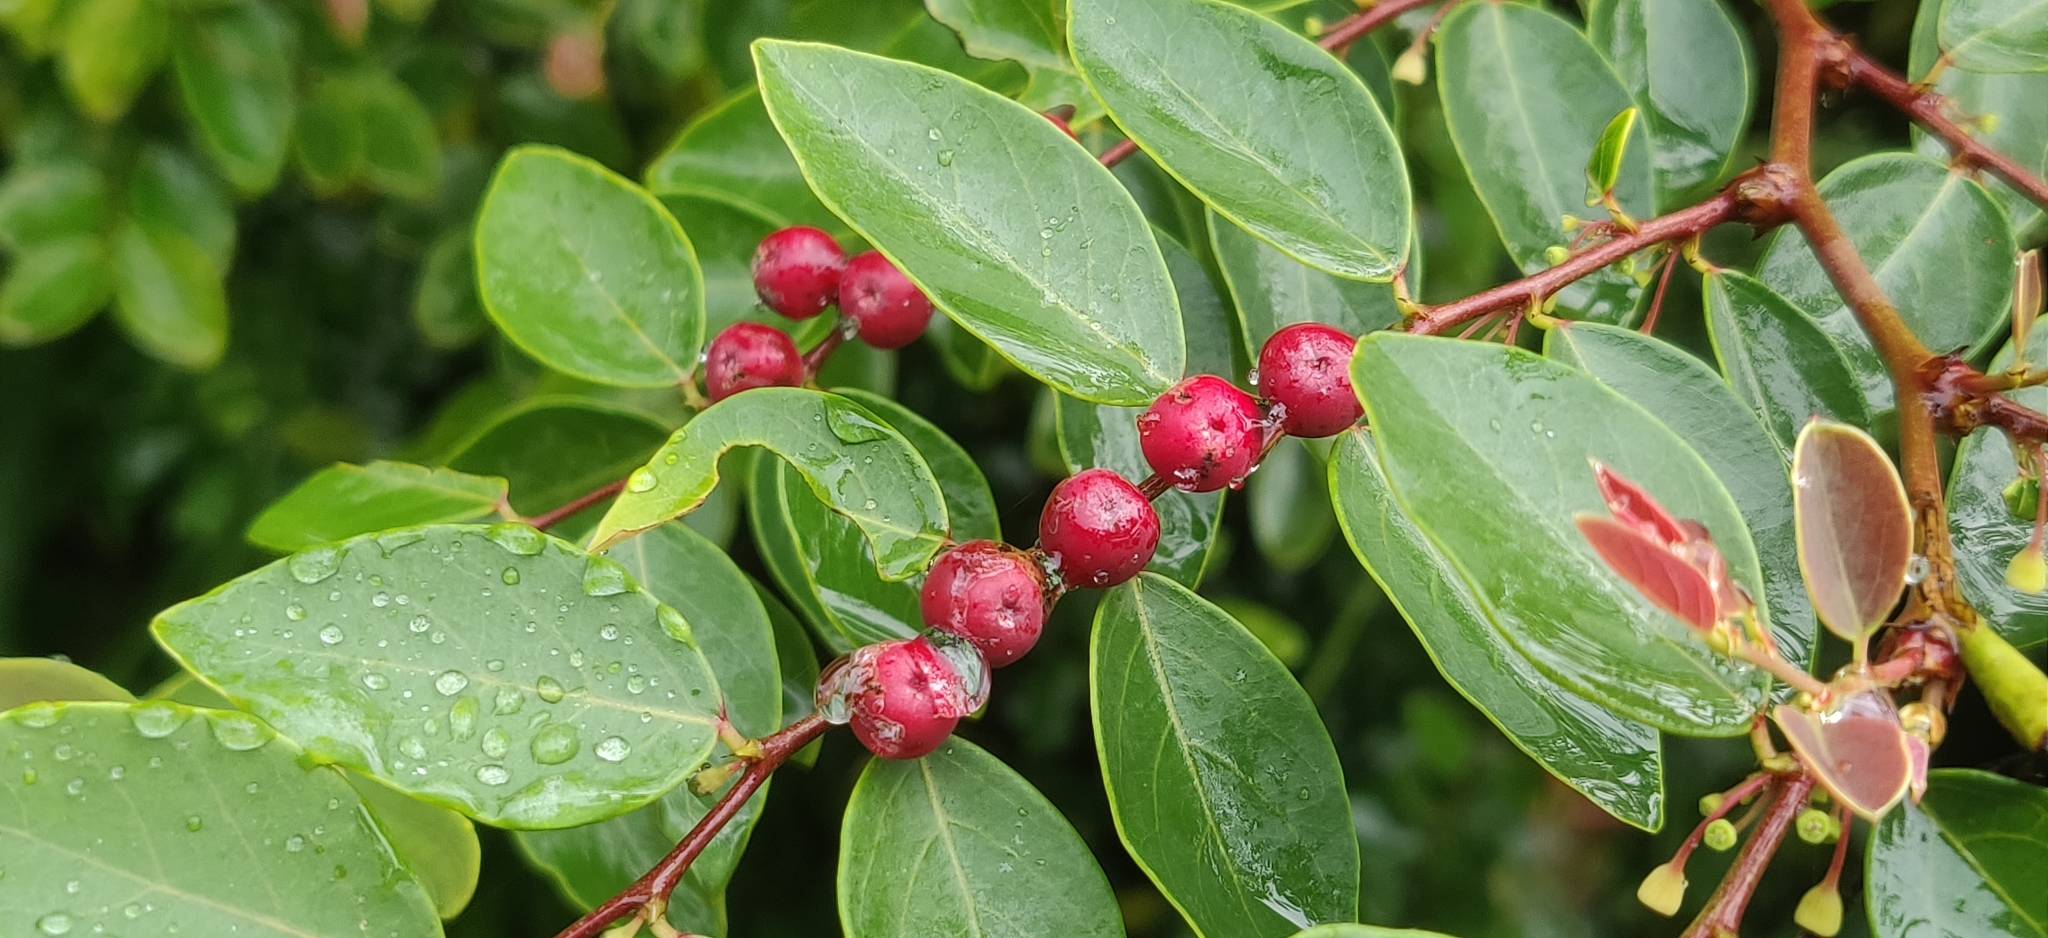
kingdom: Plantae
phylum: Tracheophyta
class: Magnoliopsida
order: Malpighiales
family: Phyllanthaceae
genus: Breynia
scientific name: Breynia vitis-idaea
